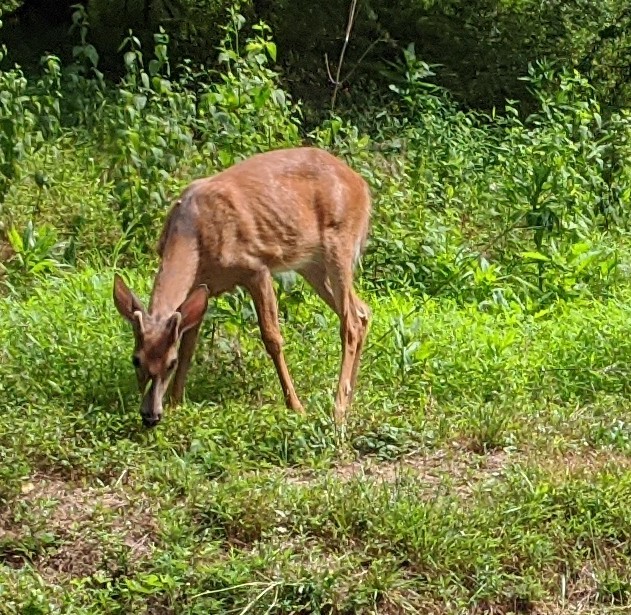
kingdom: Animalia
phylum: Chordata
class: Mammalia
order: Artiodactyla
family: Cervidae
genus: Odocoileus
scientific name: Odocoileus virginianus
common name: White-tailed deer
